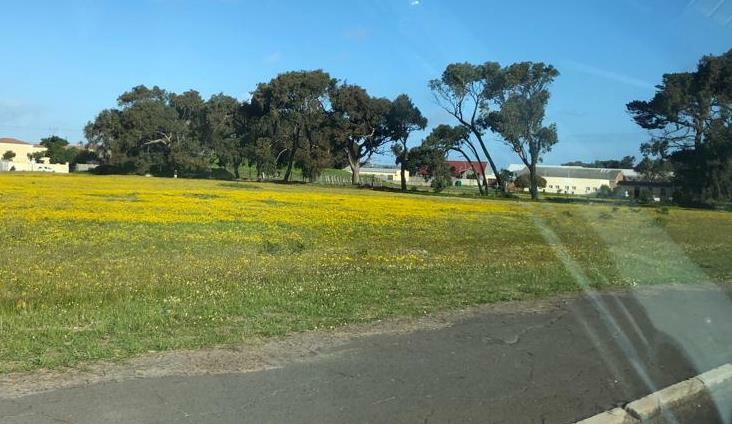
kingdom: Plantae
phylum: Tracheophyta
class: Magnoliopsida
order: Oxalidales
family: Oxalidaceae
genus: Oxalis
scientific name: Oxalis pes-caprae
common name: Bermuda-buttercup
